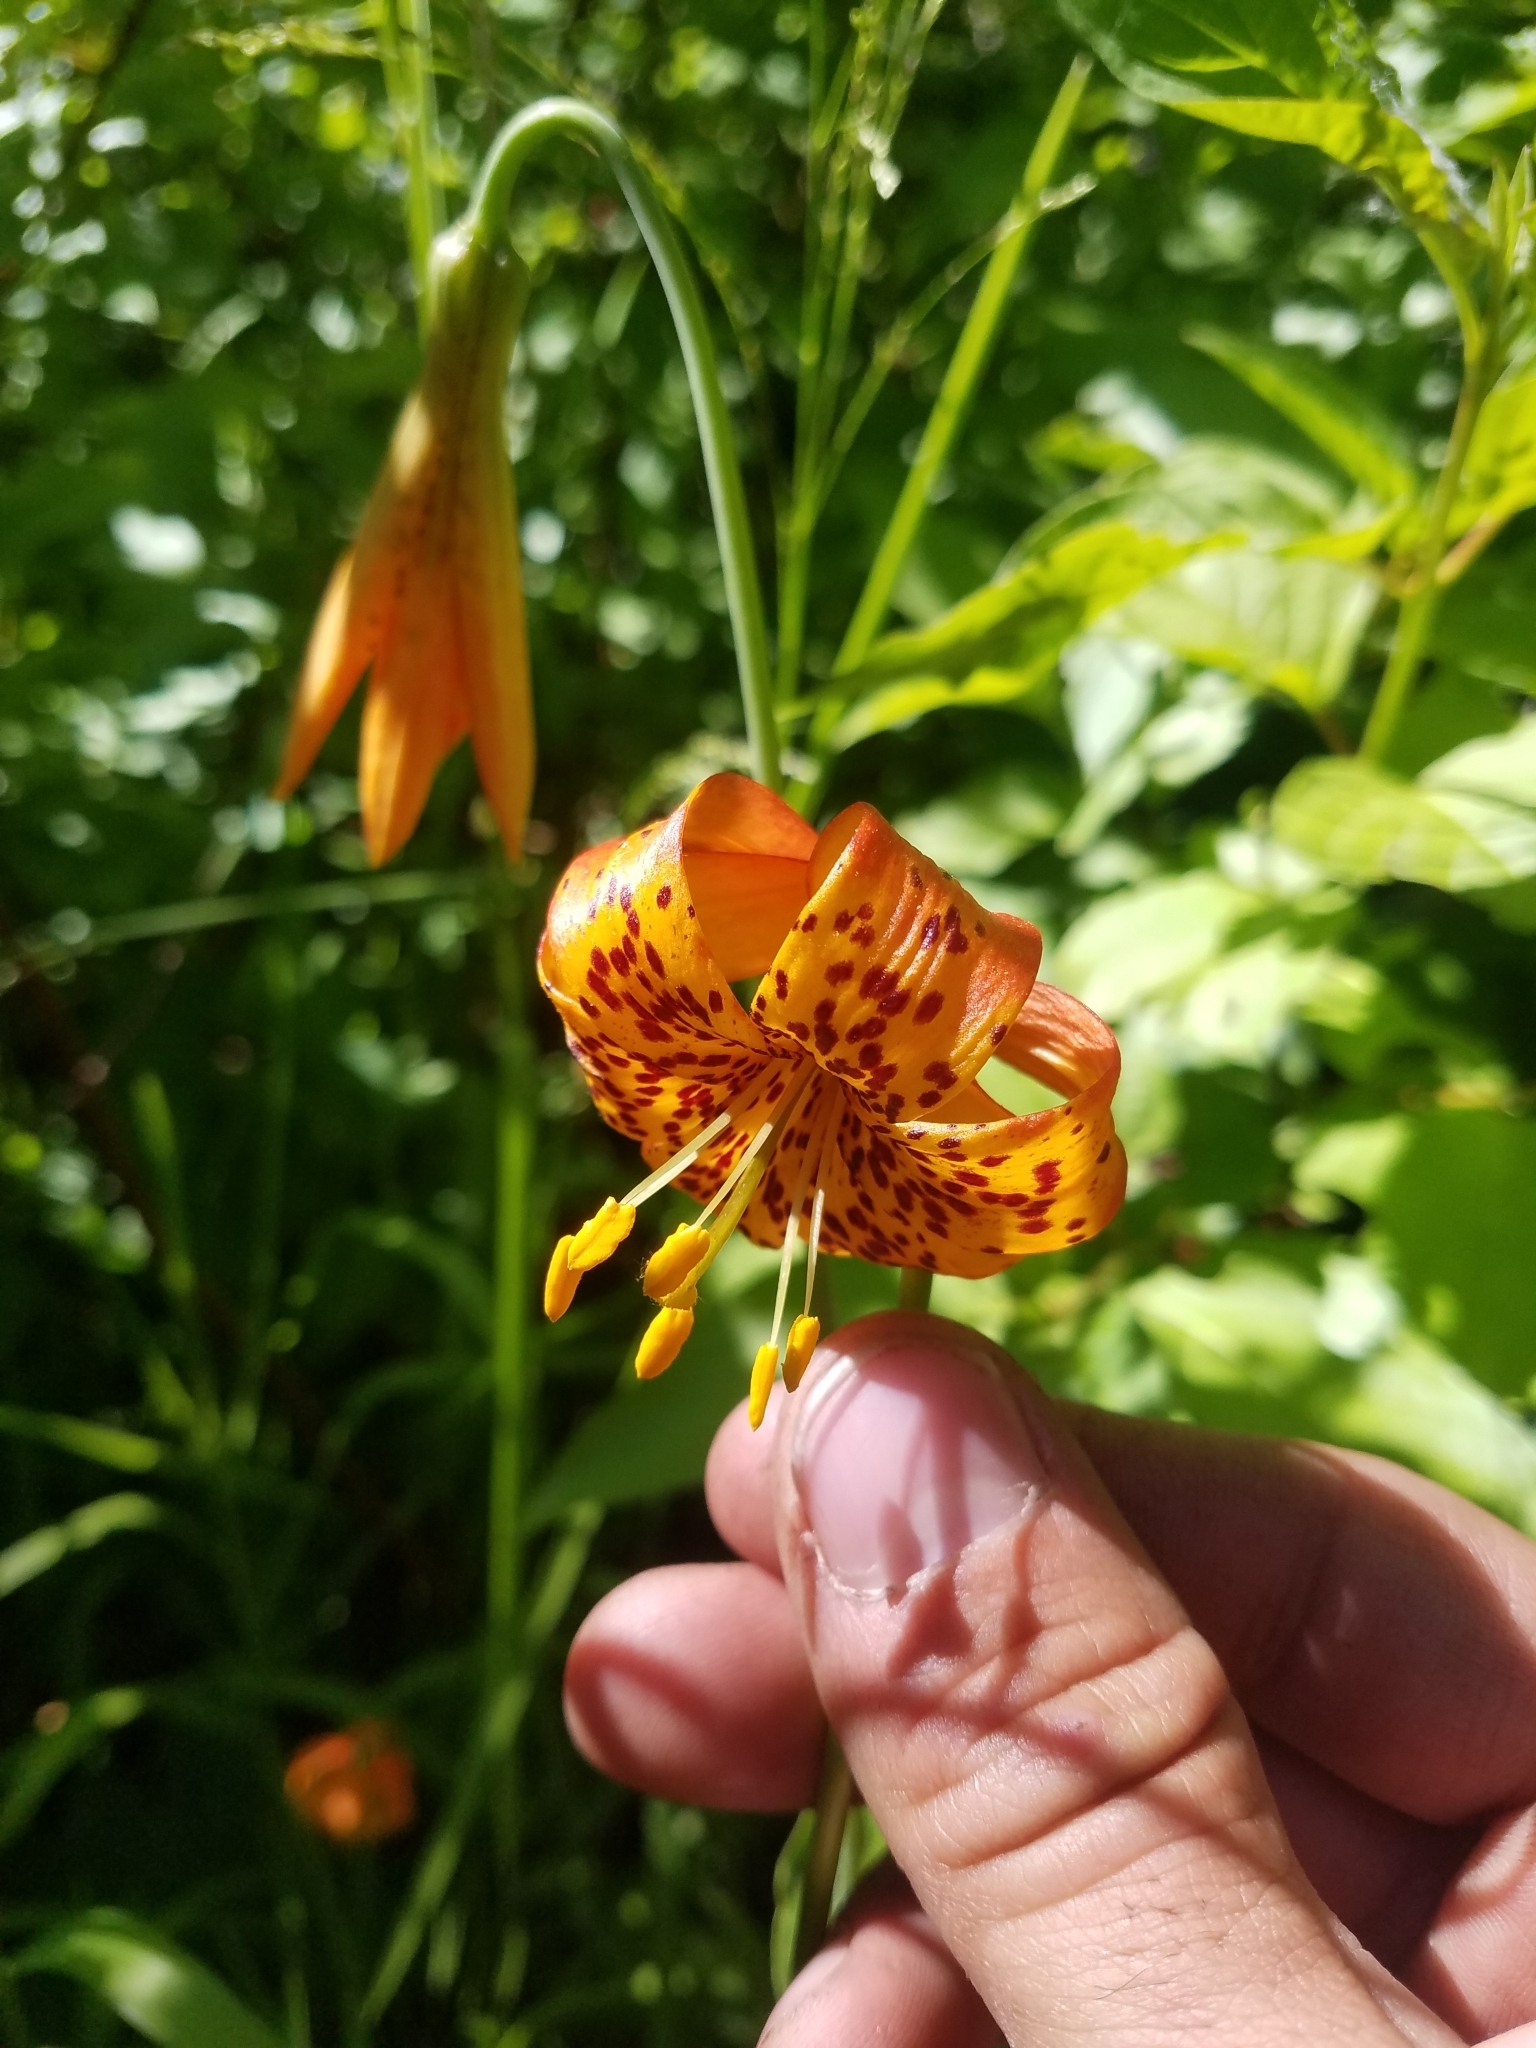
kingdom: Plantae
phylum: Tracheophyta
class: Liliopsida
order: Liliales
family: Liliaceae
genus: Lilium
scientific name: Lilium pardalinum
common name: Panther lily
